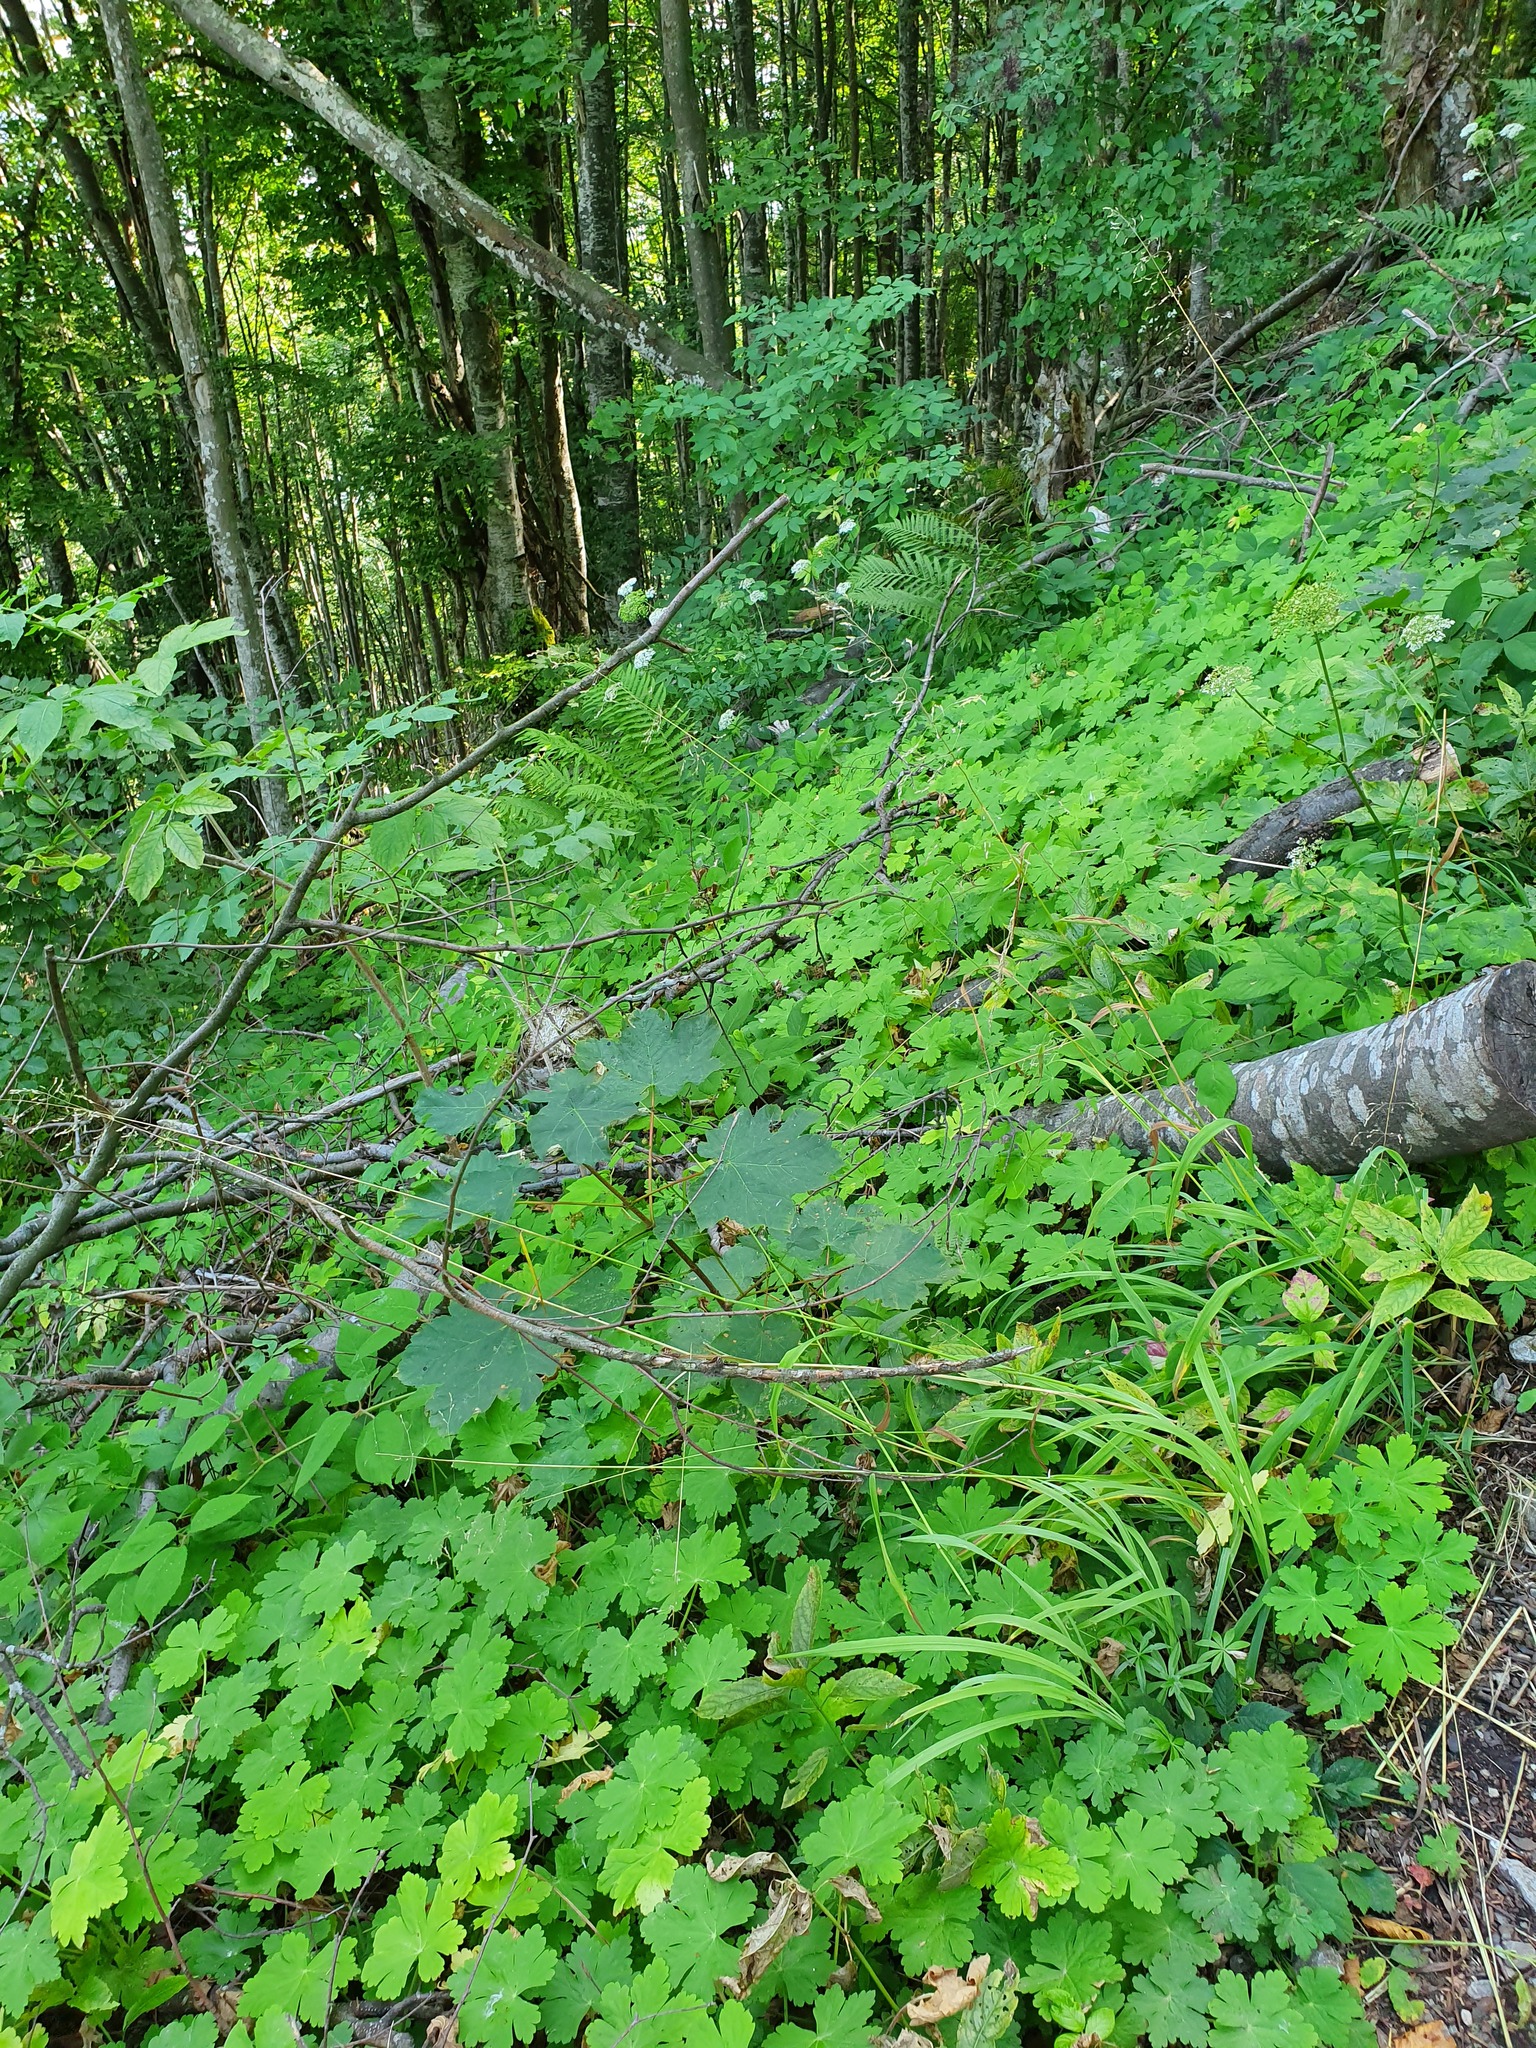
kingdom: Plantae
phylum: Tracheophyta
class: Magnoliopsida
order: Geraniales
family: Geraniaceae
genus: Geranium
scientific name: Geranium macrorrhizum
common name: Rock crane's-bill
